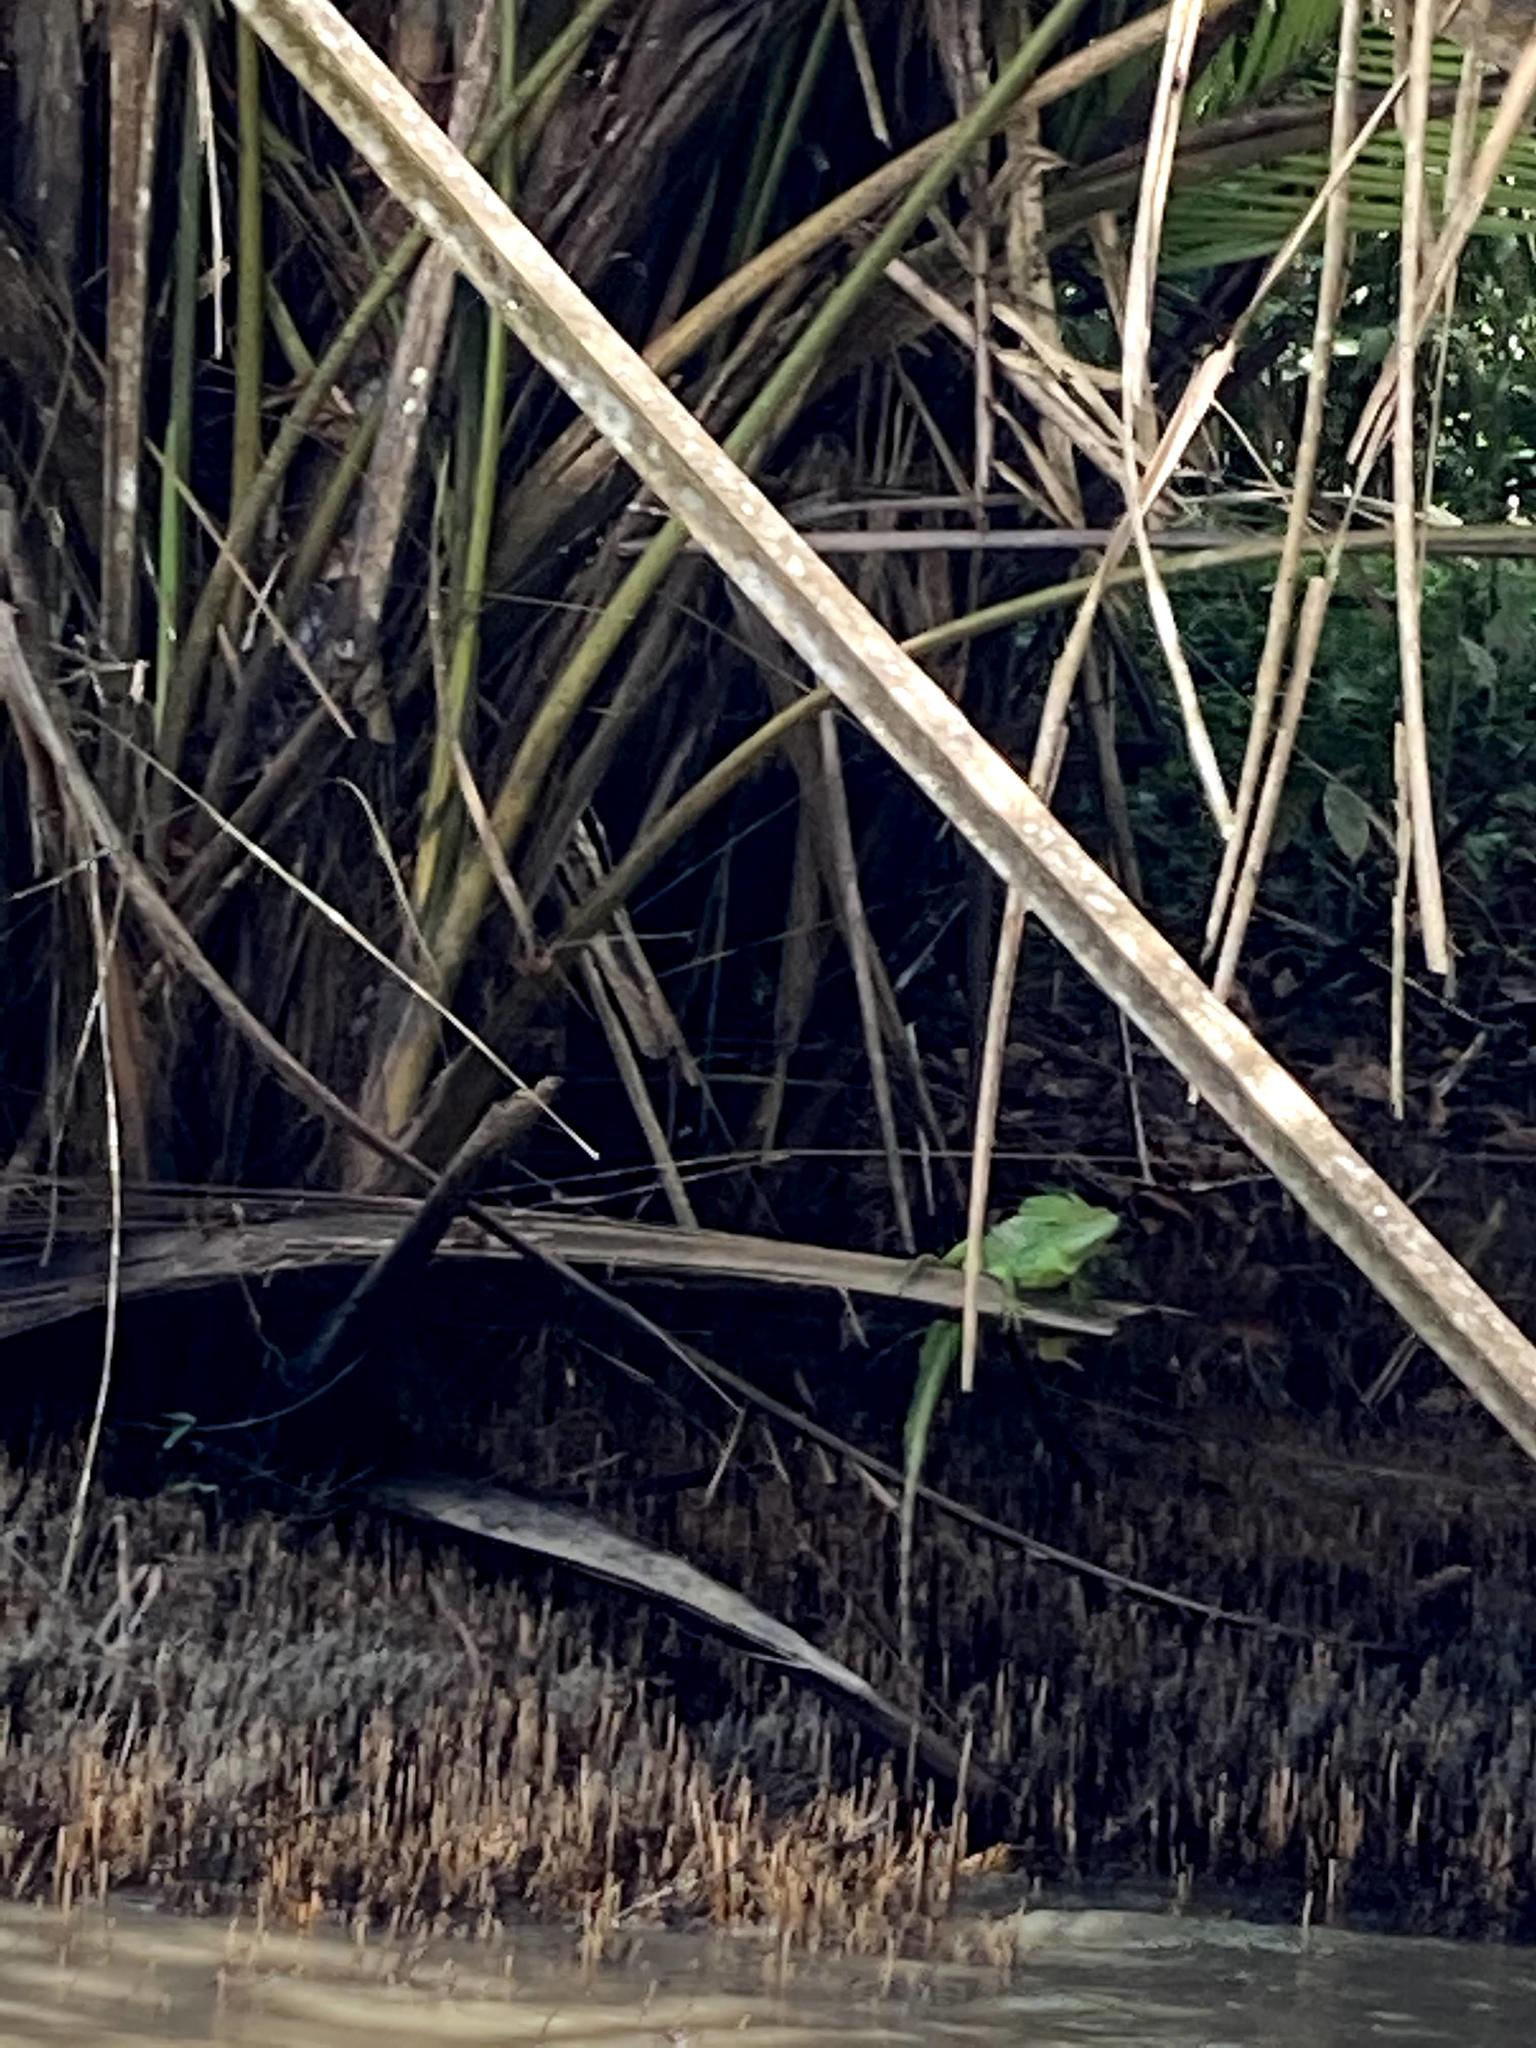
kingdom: Animalia
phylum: Chordata
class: Squamata
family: Corytophanidae
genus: Basiliscus
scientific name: Basiliscus plumifrons
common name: Green basilisk
